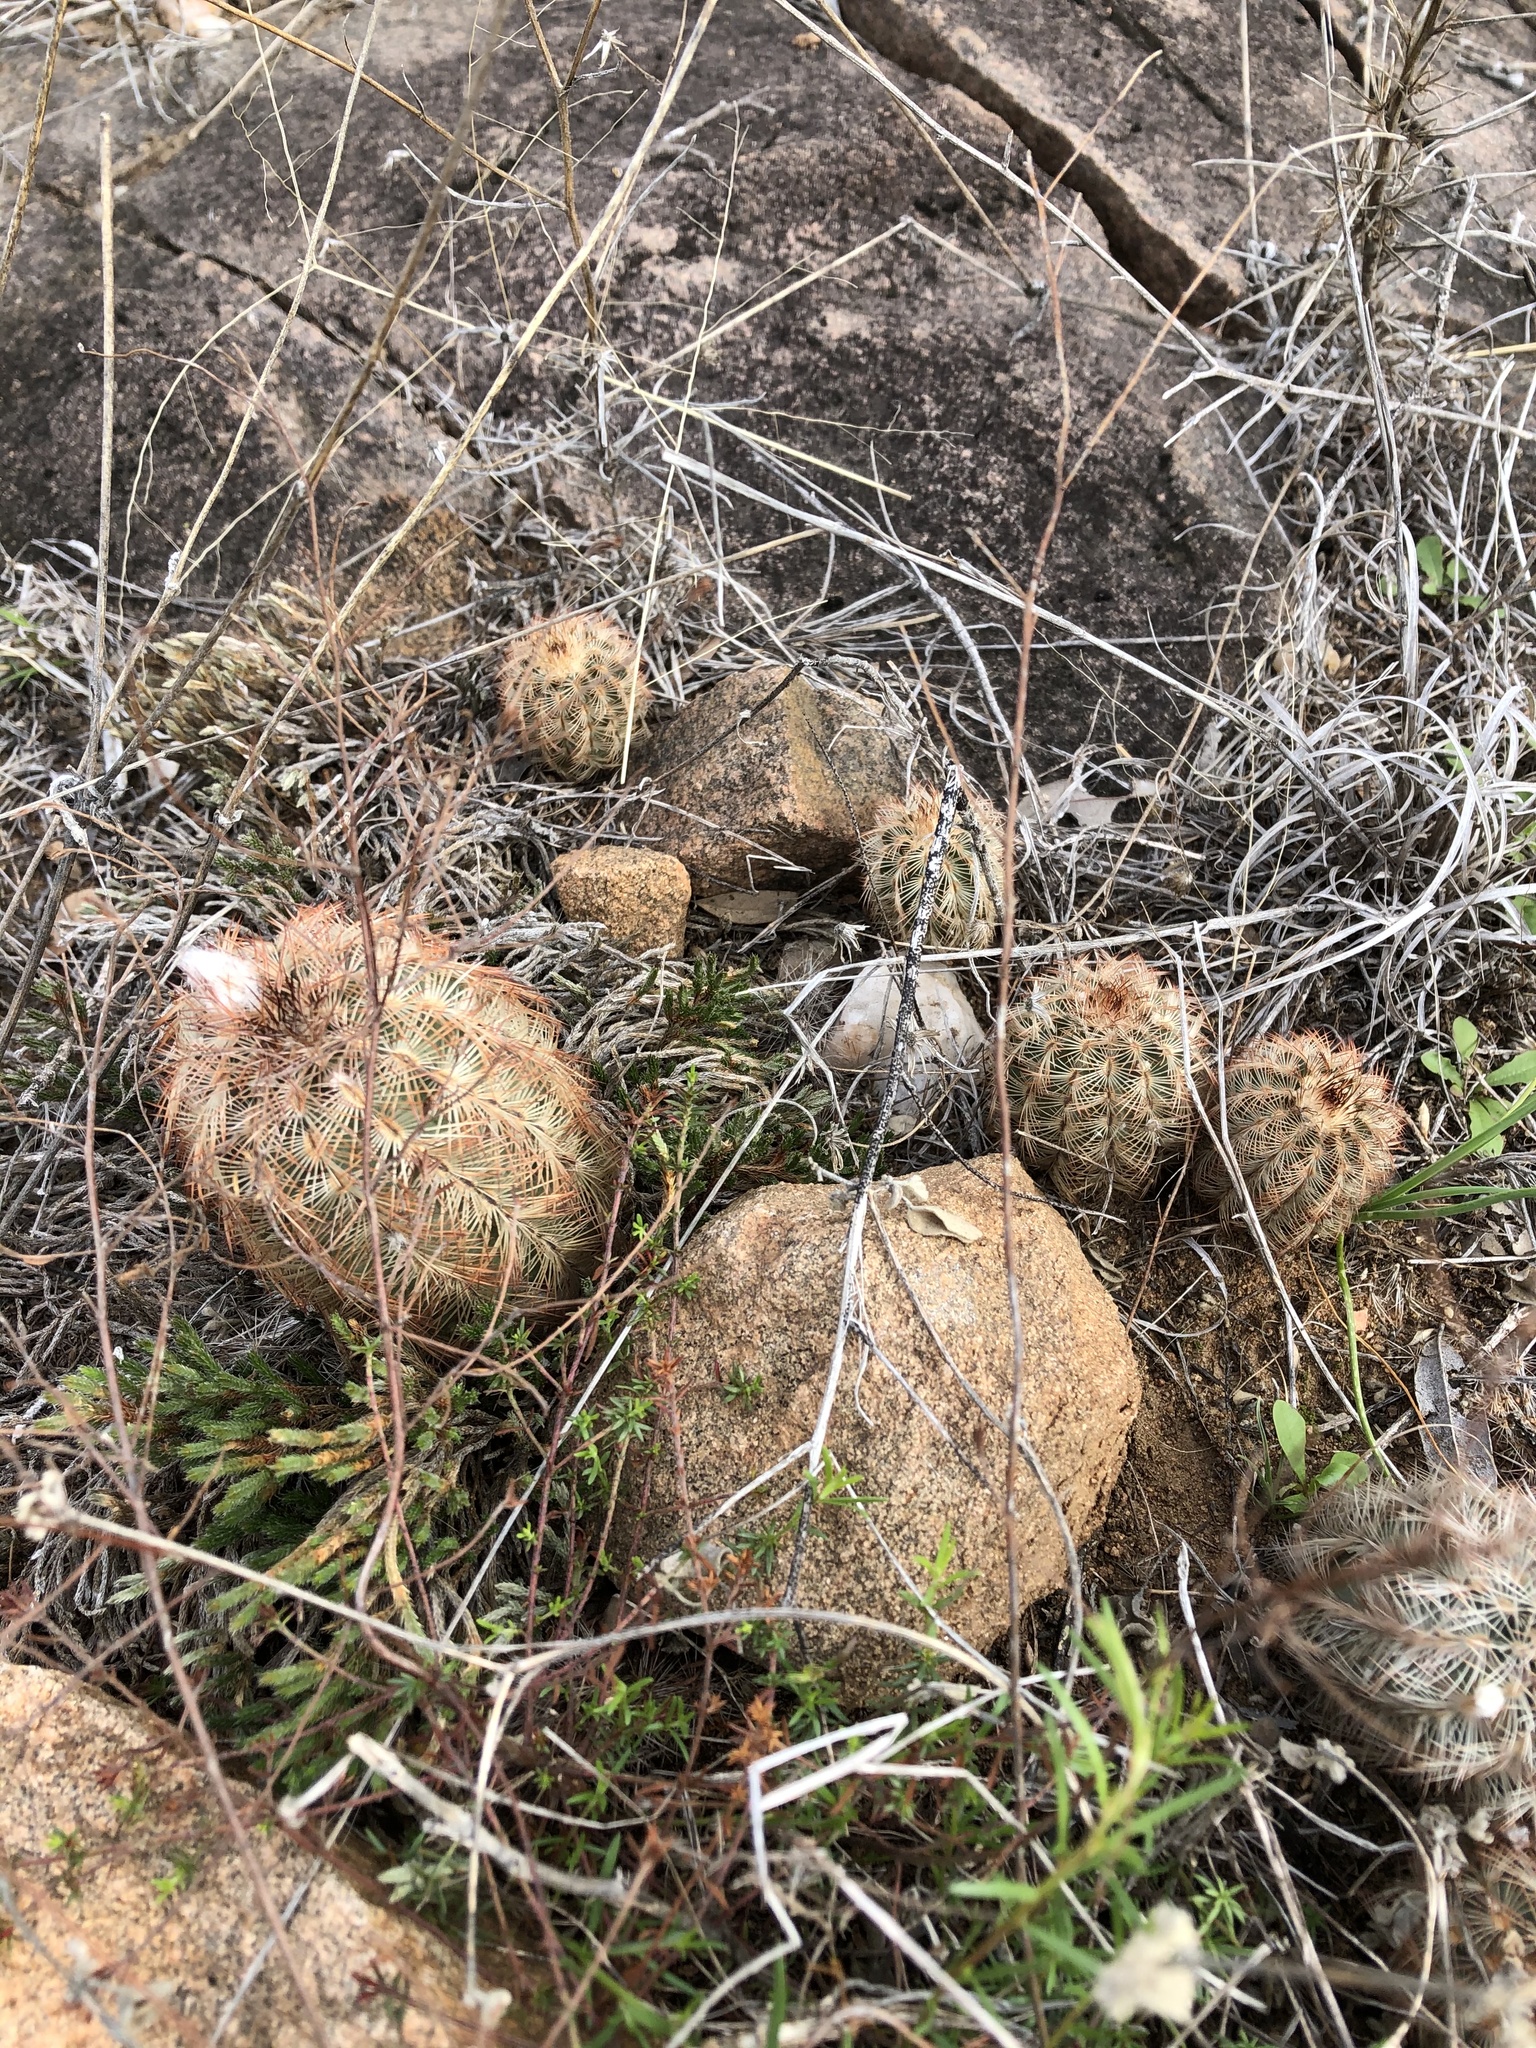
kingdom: Plantae
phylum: Tracheophyta
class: Magnoliopsida
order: Caryophyllales
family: Cactaceae
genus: Echinocereus
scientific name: Echinocereus reichenbachii
